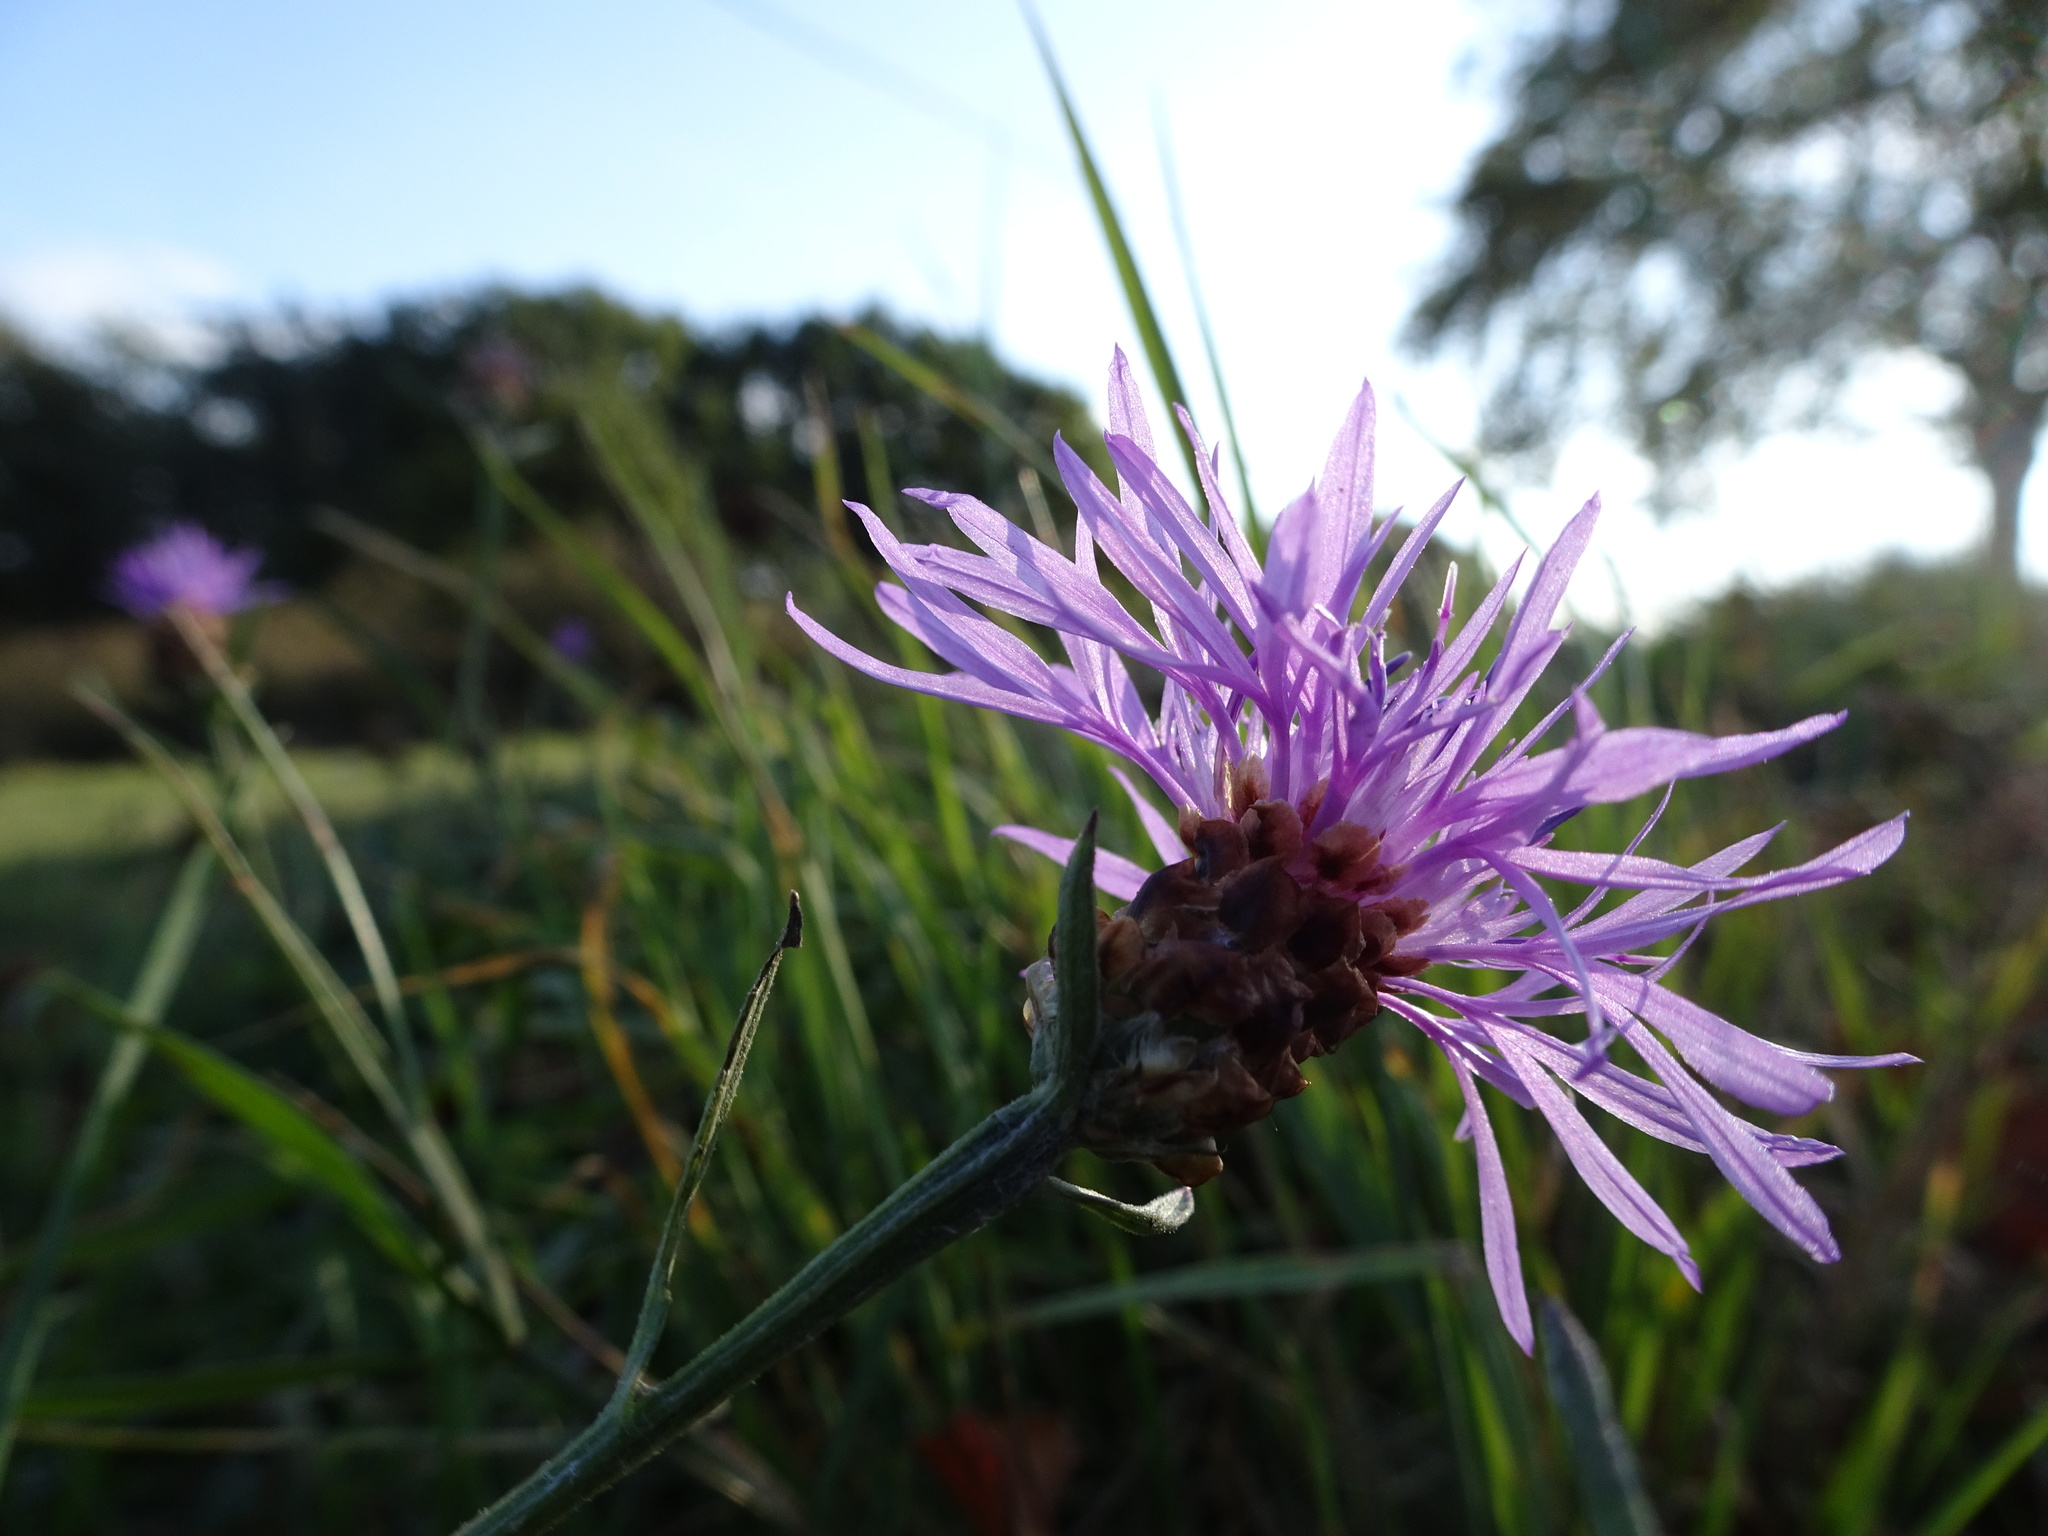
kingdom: Plantae
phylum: Tracheophyta
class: Magnoliopsida
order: Asterales
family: Asteraceae
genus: Centaurea
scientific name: Centaurea jacea
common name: Brown knapweed
